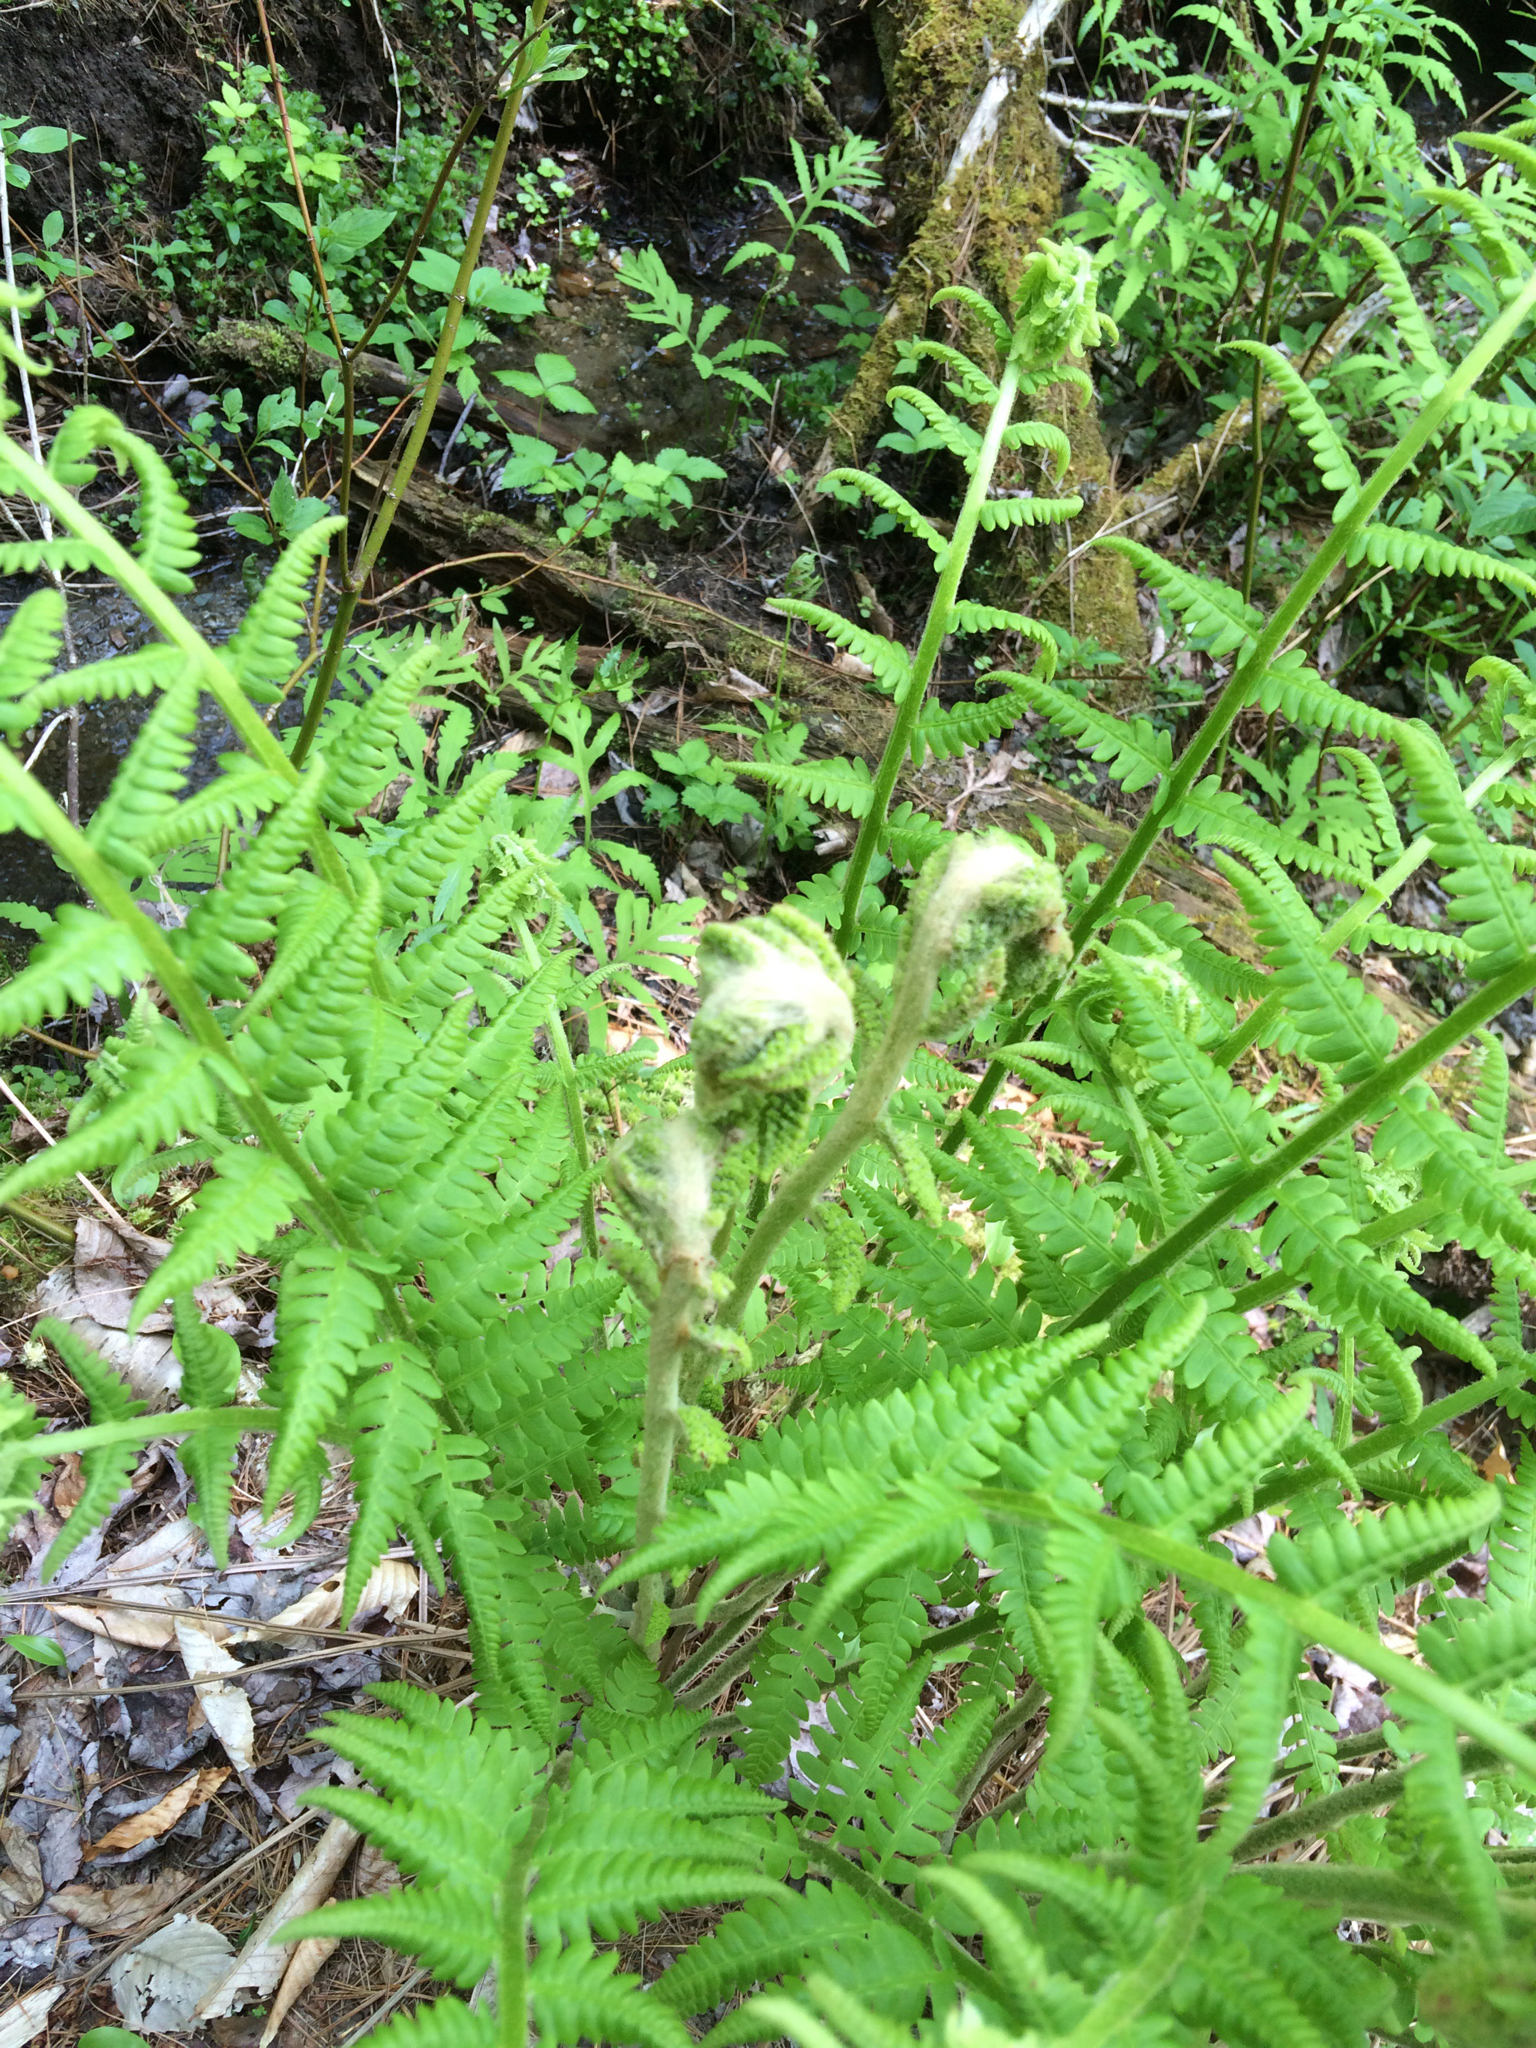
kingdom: Plantae
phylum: Tracheophyta
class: Polypodiopsida
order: Osmundales
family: Osmundaceae
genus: Osmundastrum
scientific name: Osmundastrum cinnamomeum
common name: Cinnamon fern
